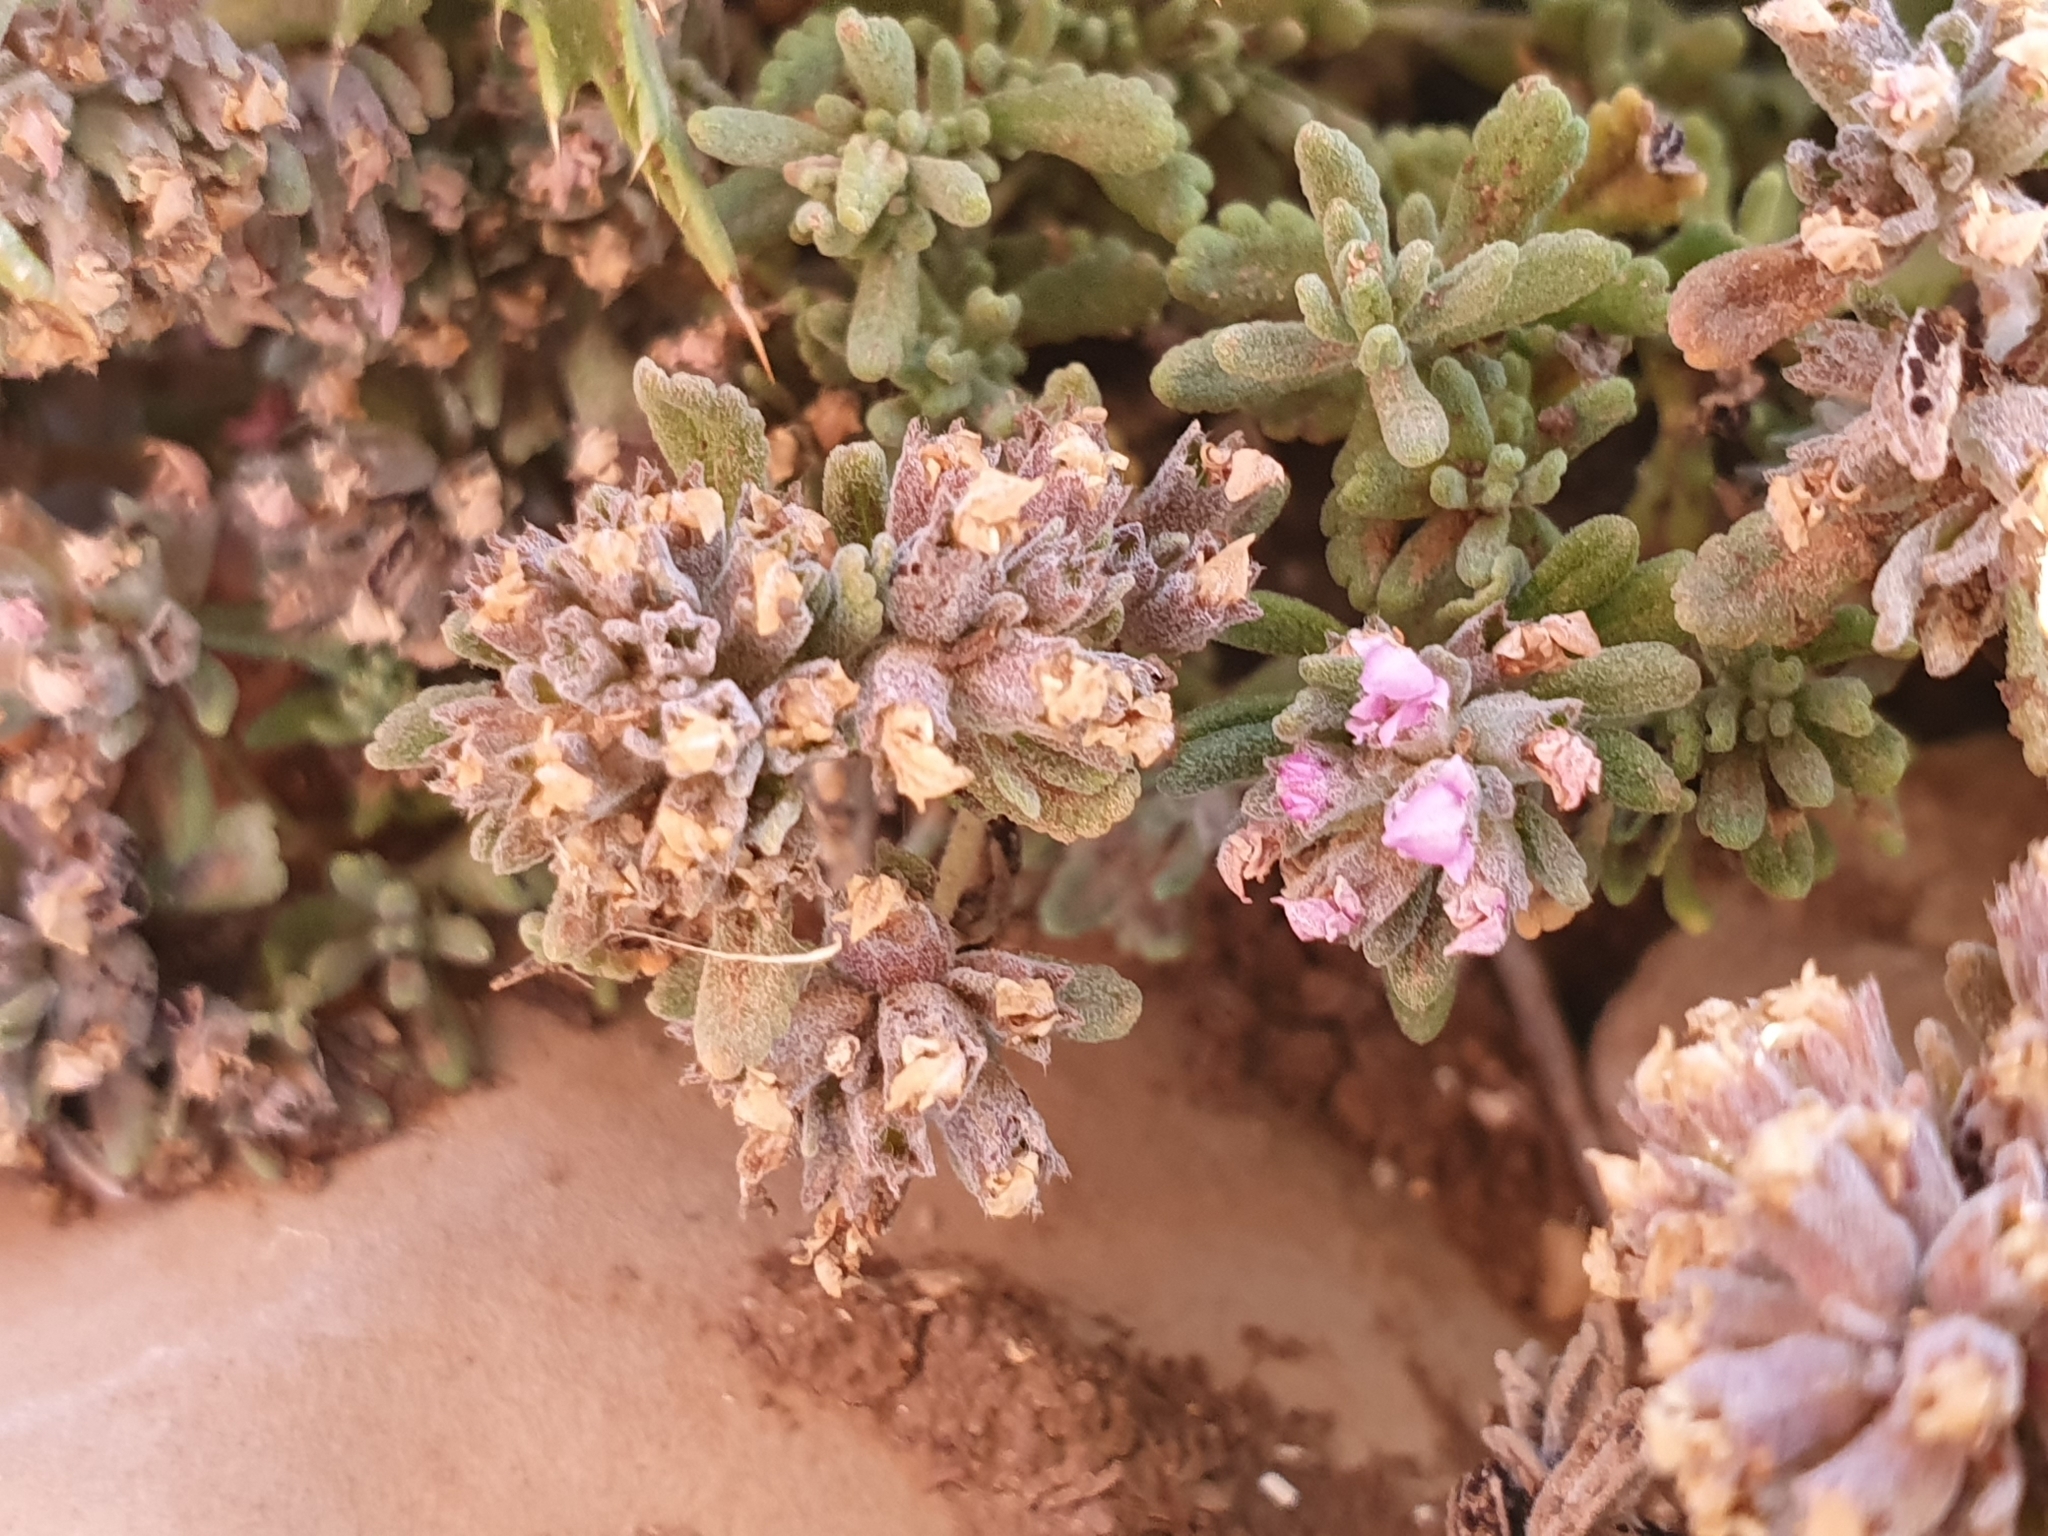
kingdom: Plantae
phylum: Tracheophyta
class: Magnoliopsida
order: Lamiales
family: Lamiaceae
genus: Teucrium
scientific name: Teucrium capitatum
